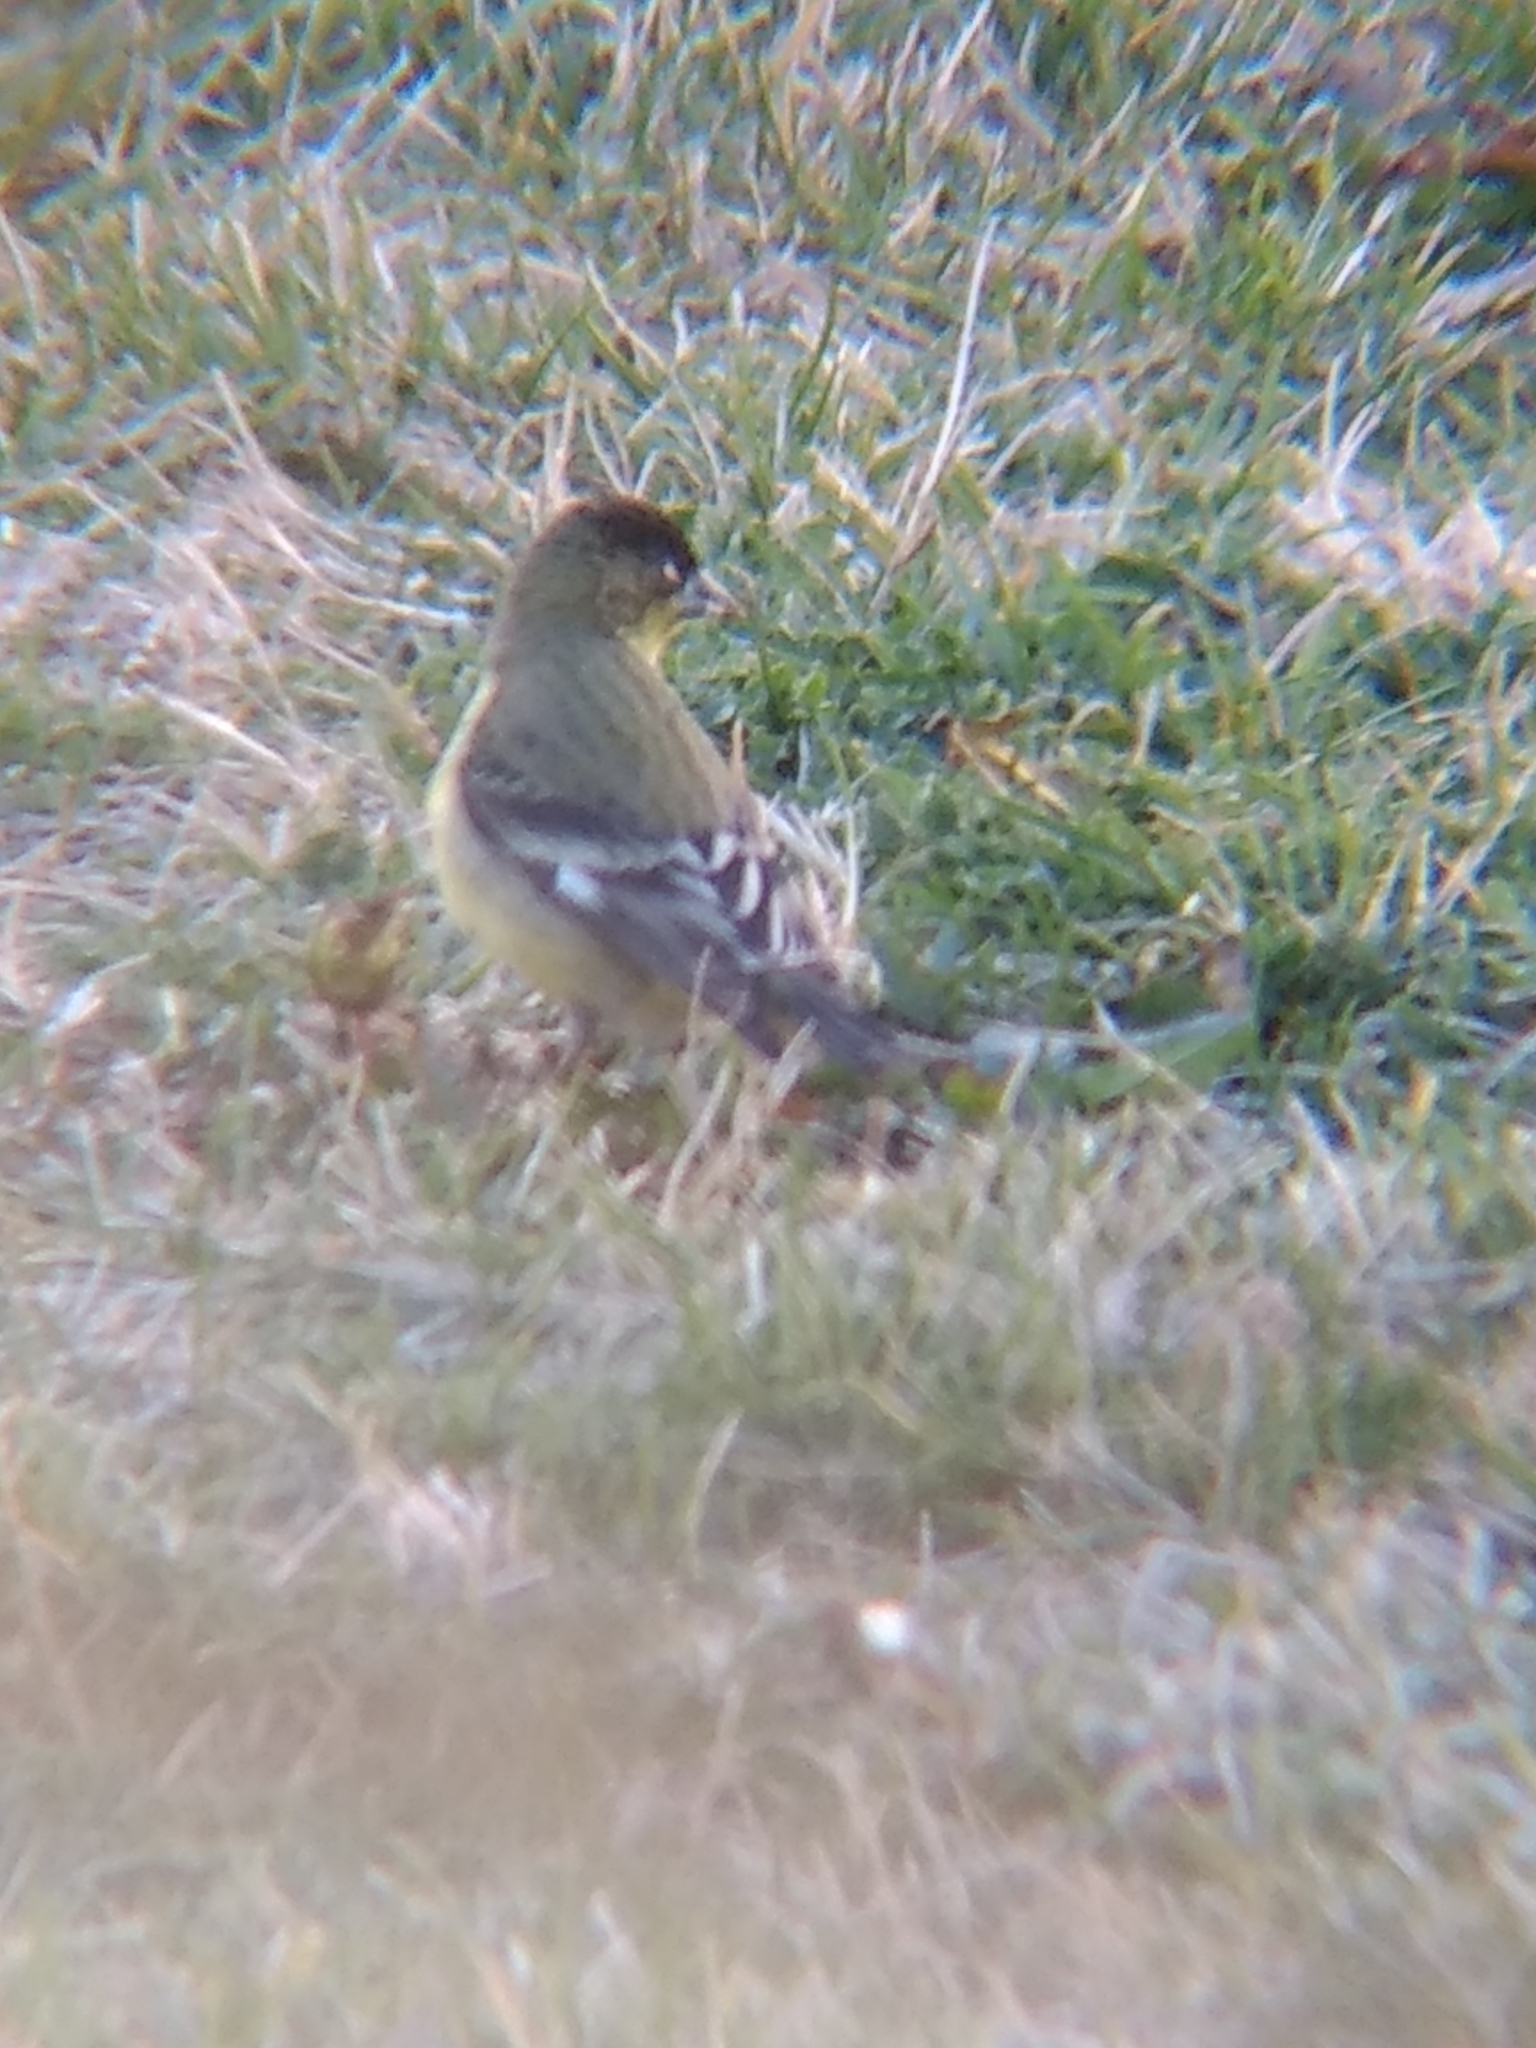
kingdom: Animalia
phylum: Chordata
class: Aves
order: Passeriformes
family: Fringillidae
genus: Spinus
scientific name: Spinus psaltria
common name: Lesser goldfinch
